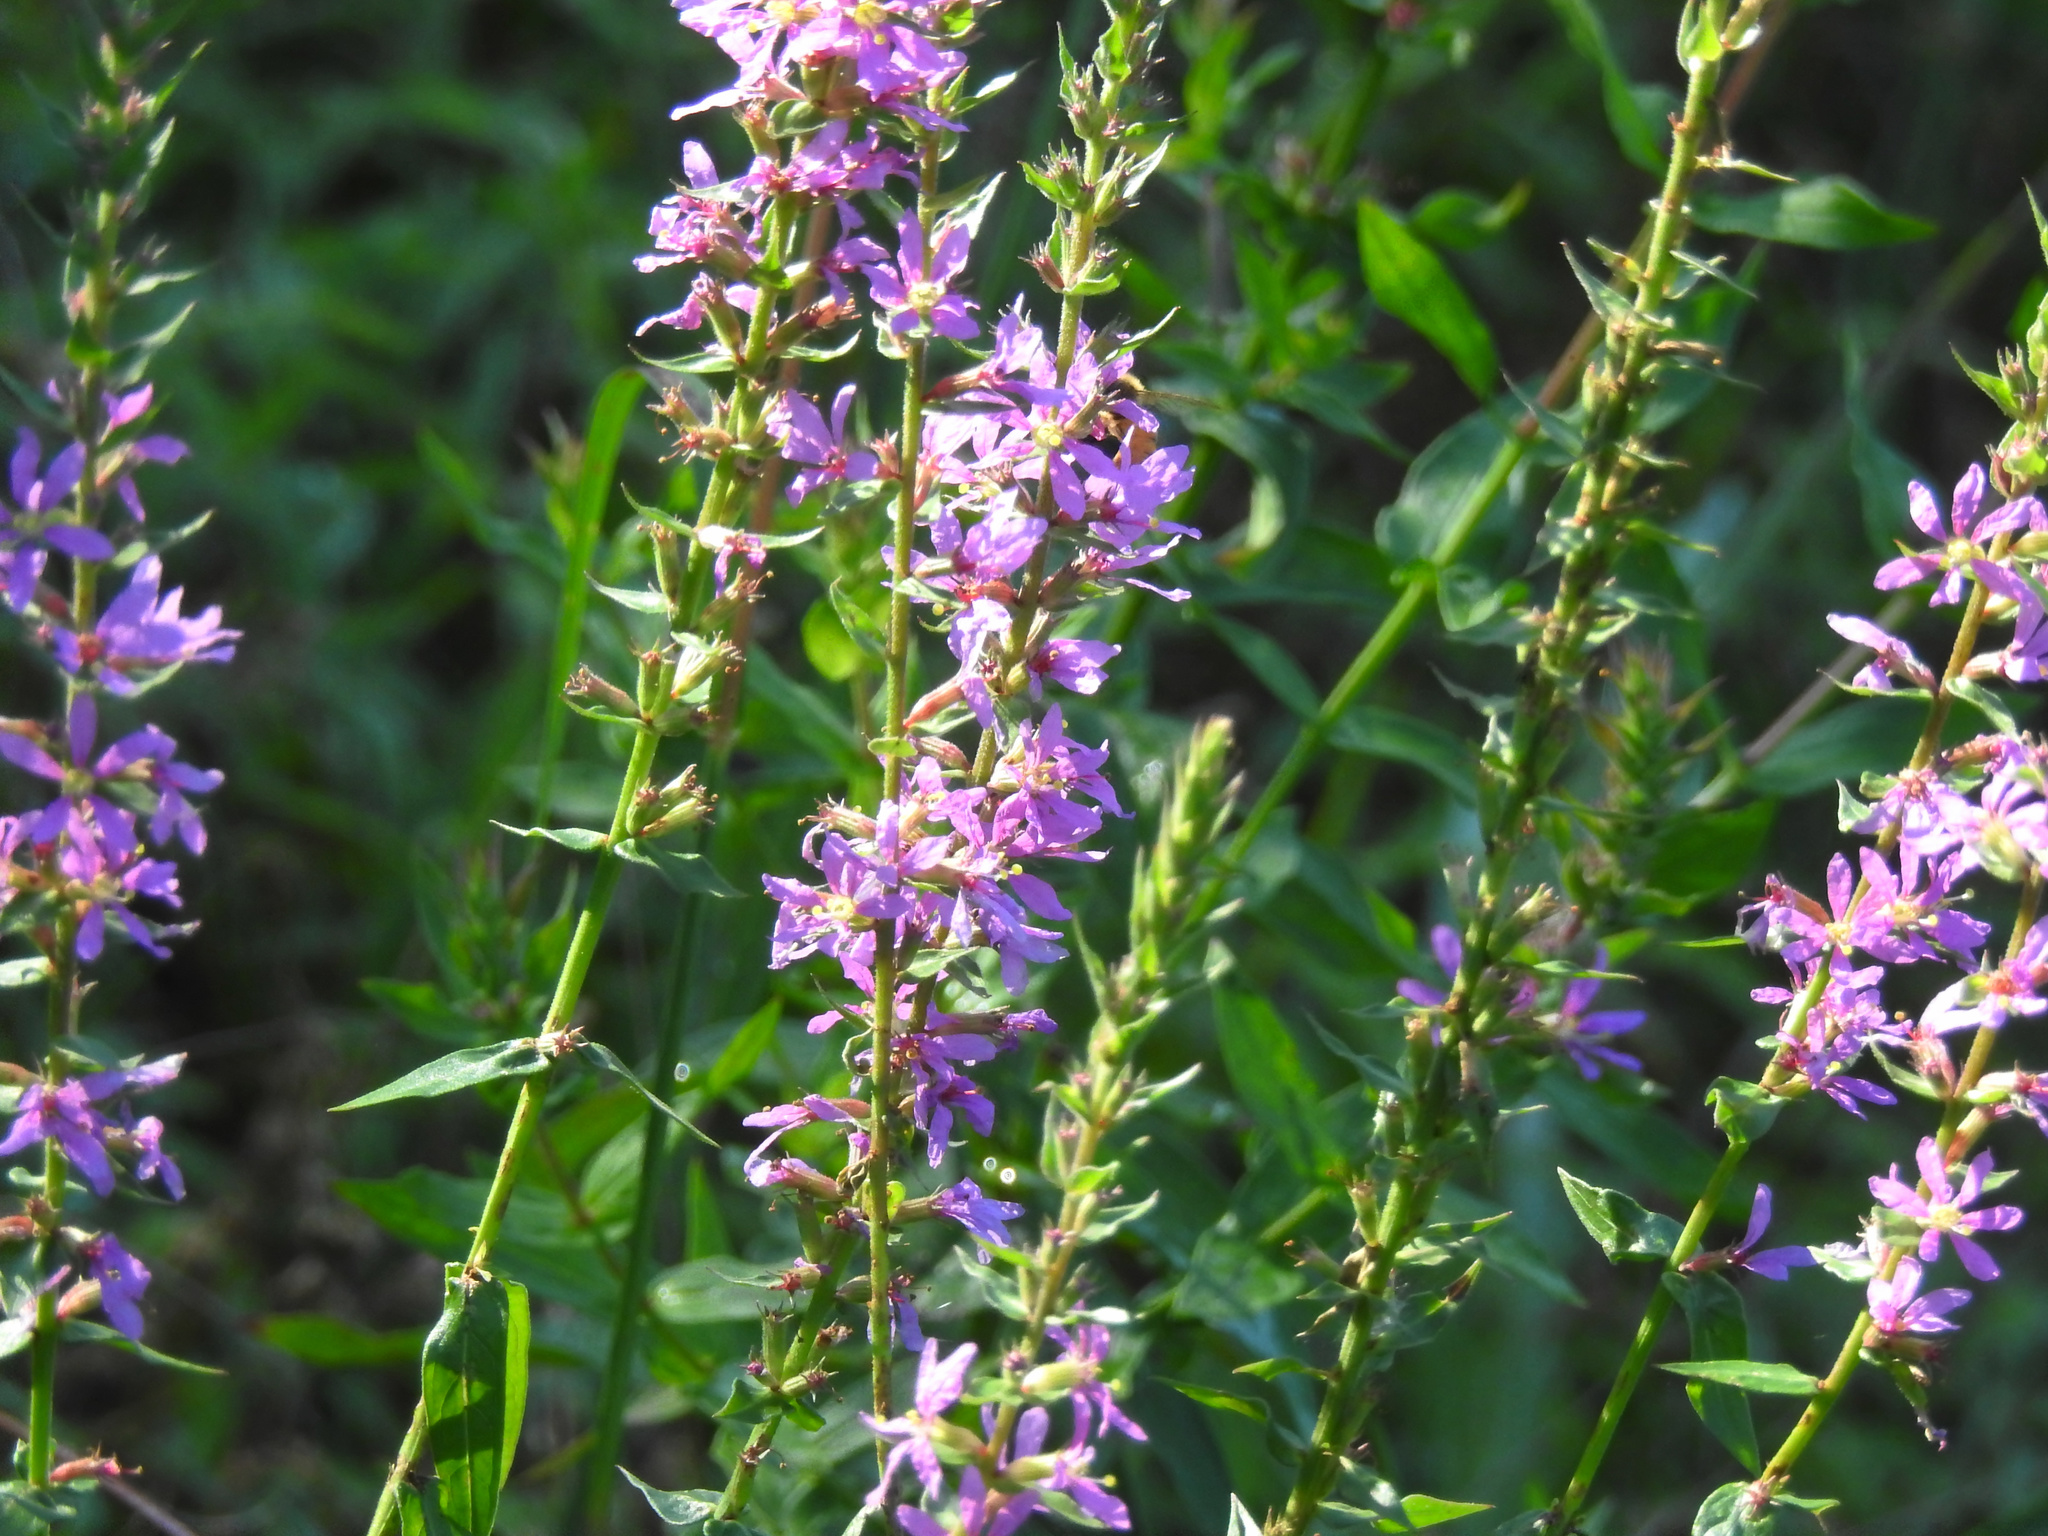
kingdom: Plantae
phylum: Tracheophyta
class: Magnoliopsida
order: Myrtales
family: Lythraceae
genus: Lythrum
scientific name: Lythrum salicaria
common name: Purple loosestrife
